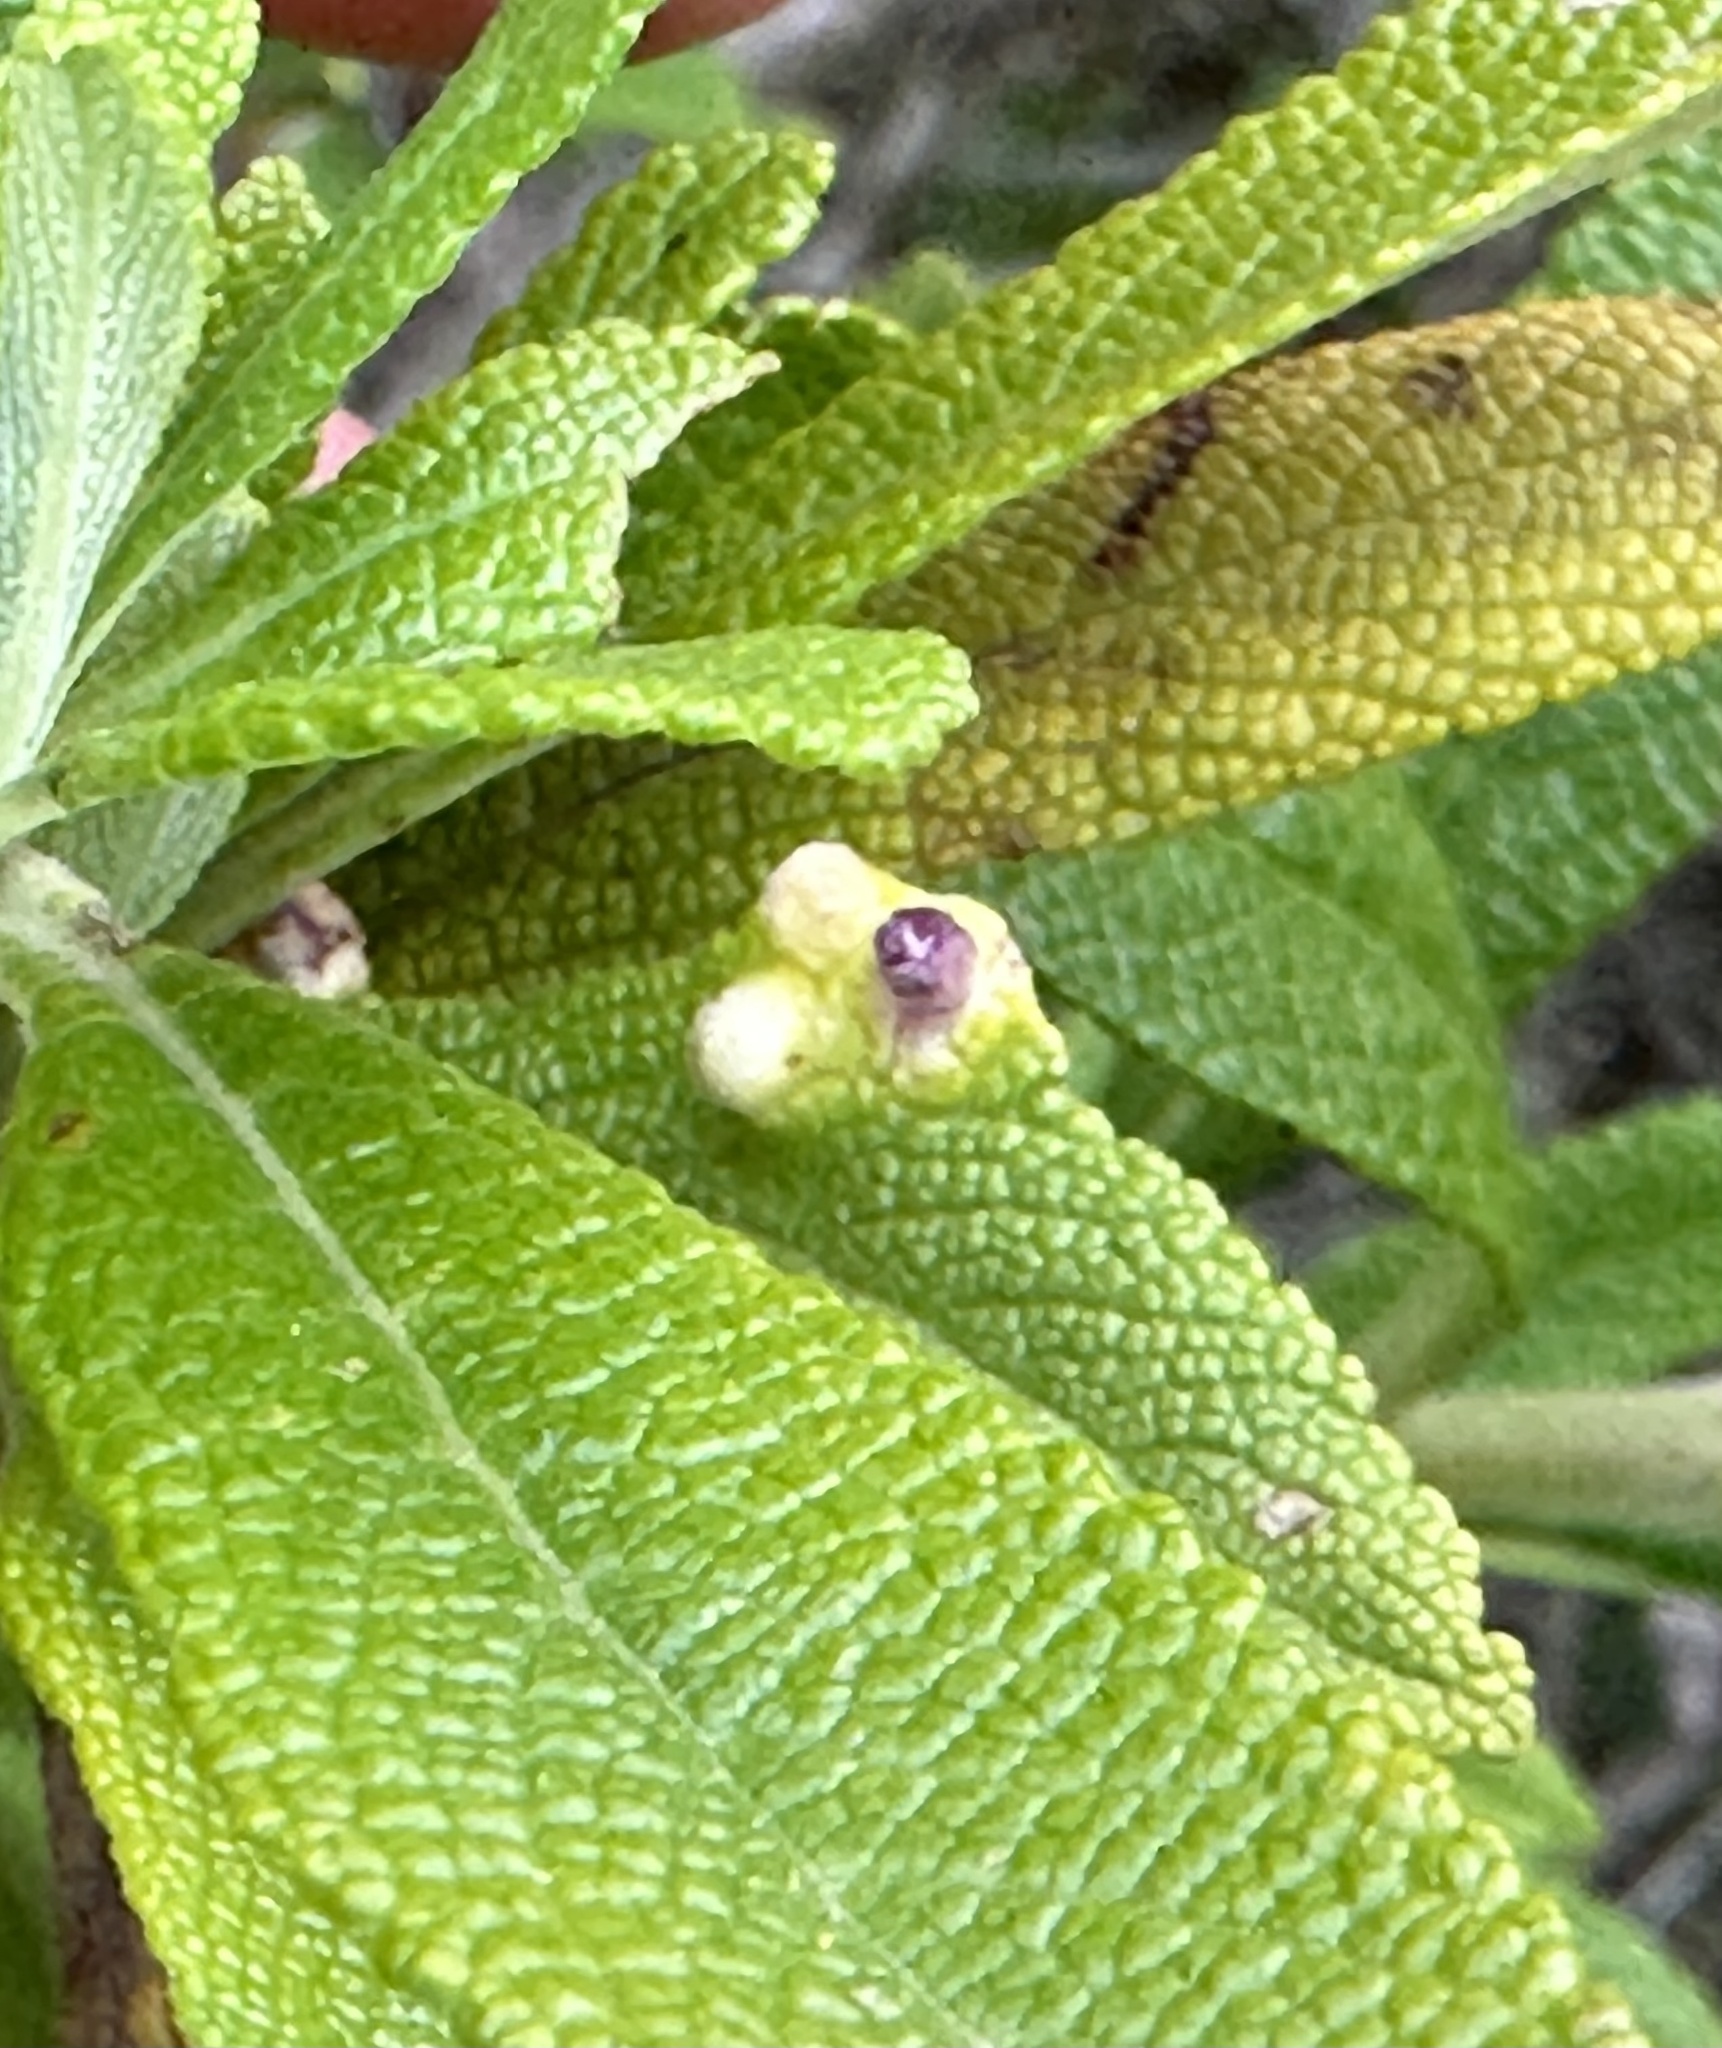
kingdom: Animalia
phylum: Arthropoda
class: Insecta
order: Diptera
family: Cecidomyiidae
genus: Rhopalomyia
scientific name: Rhopalomyia audibertiae
